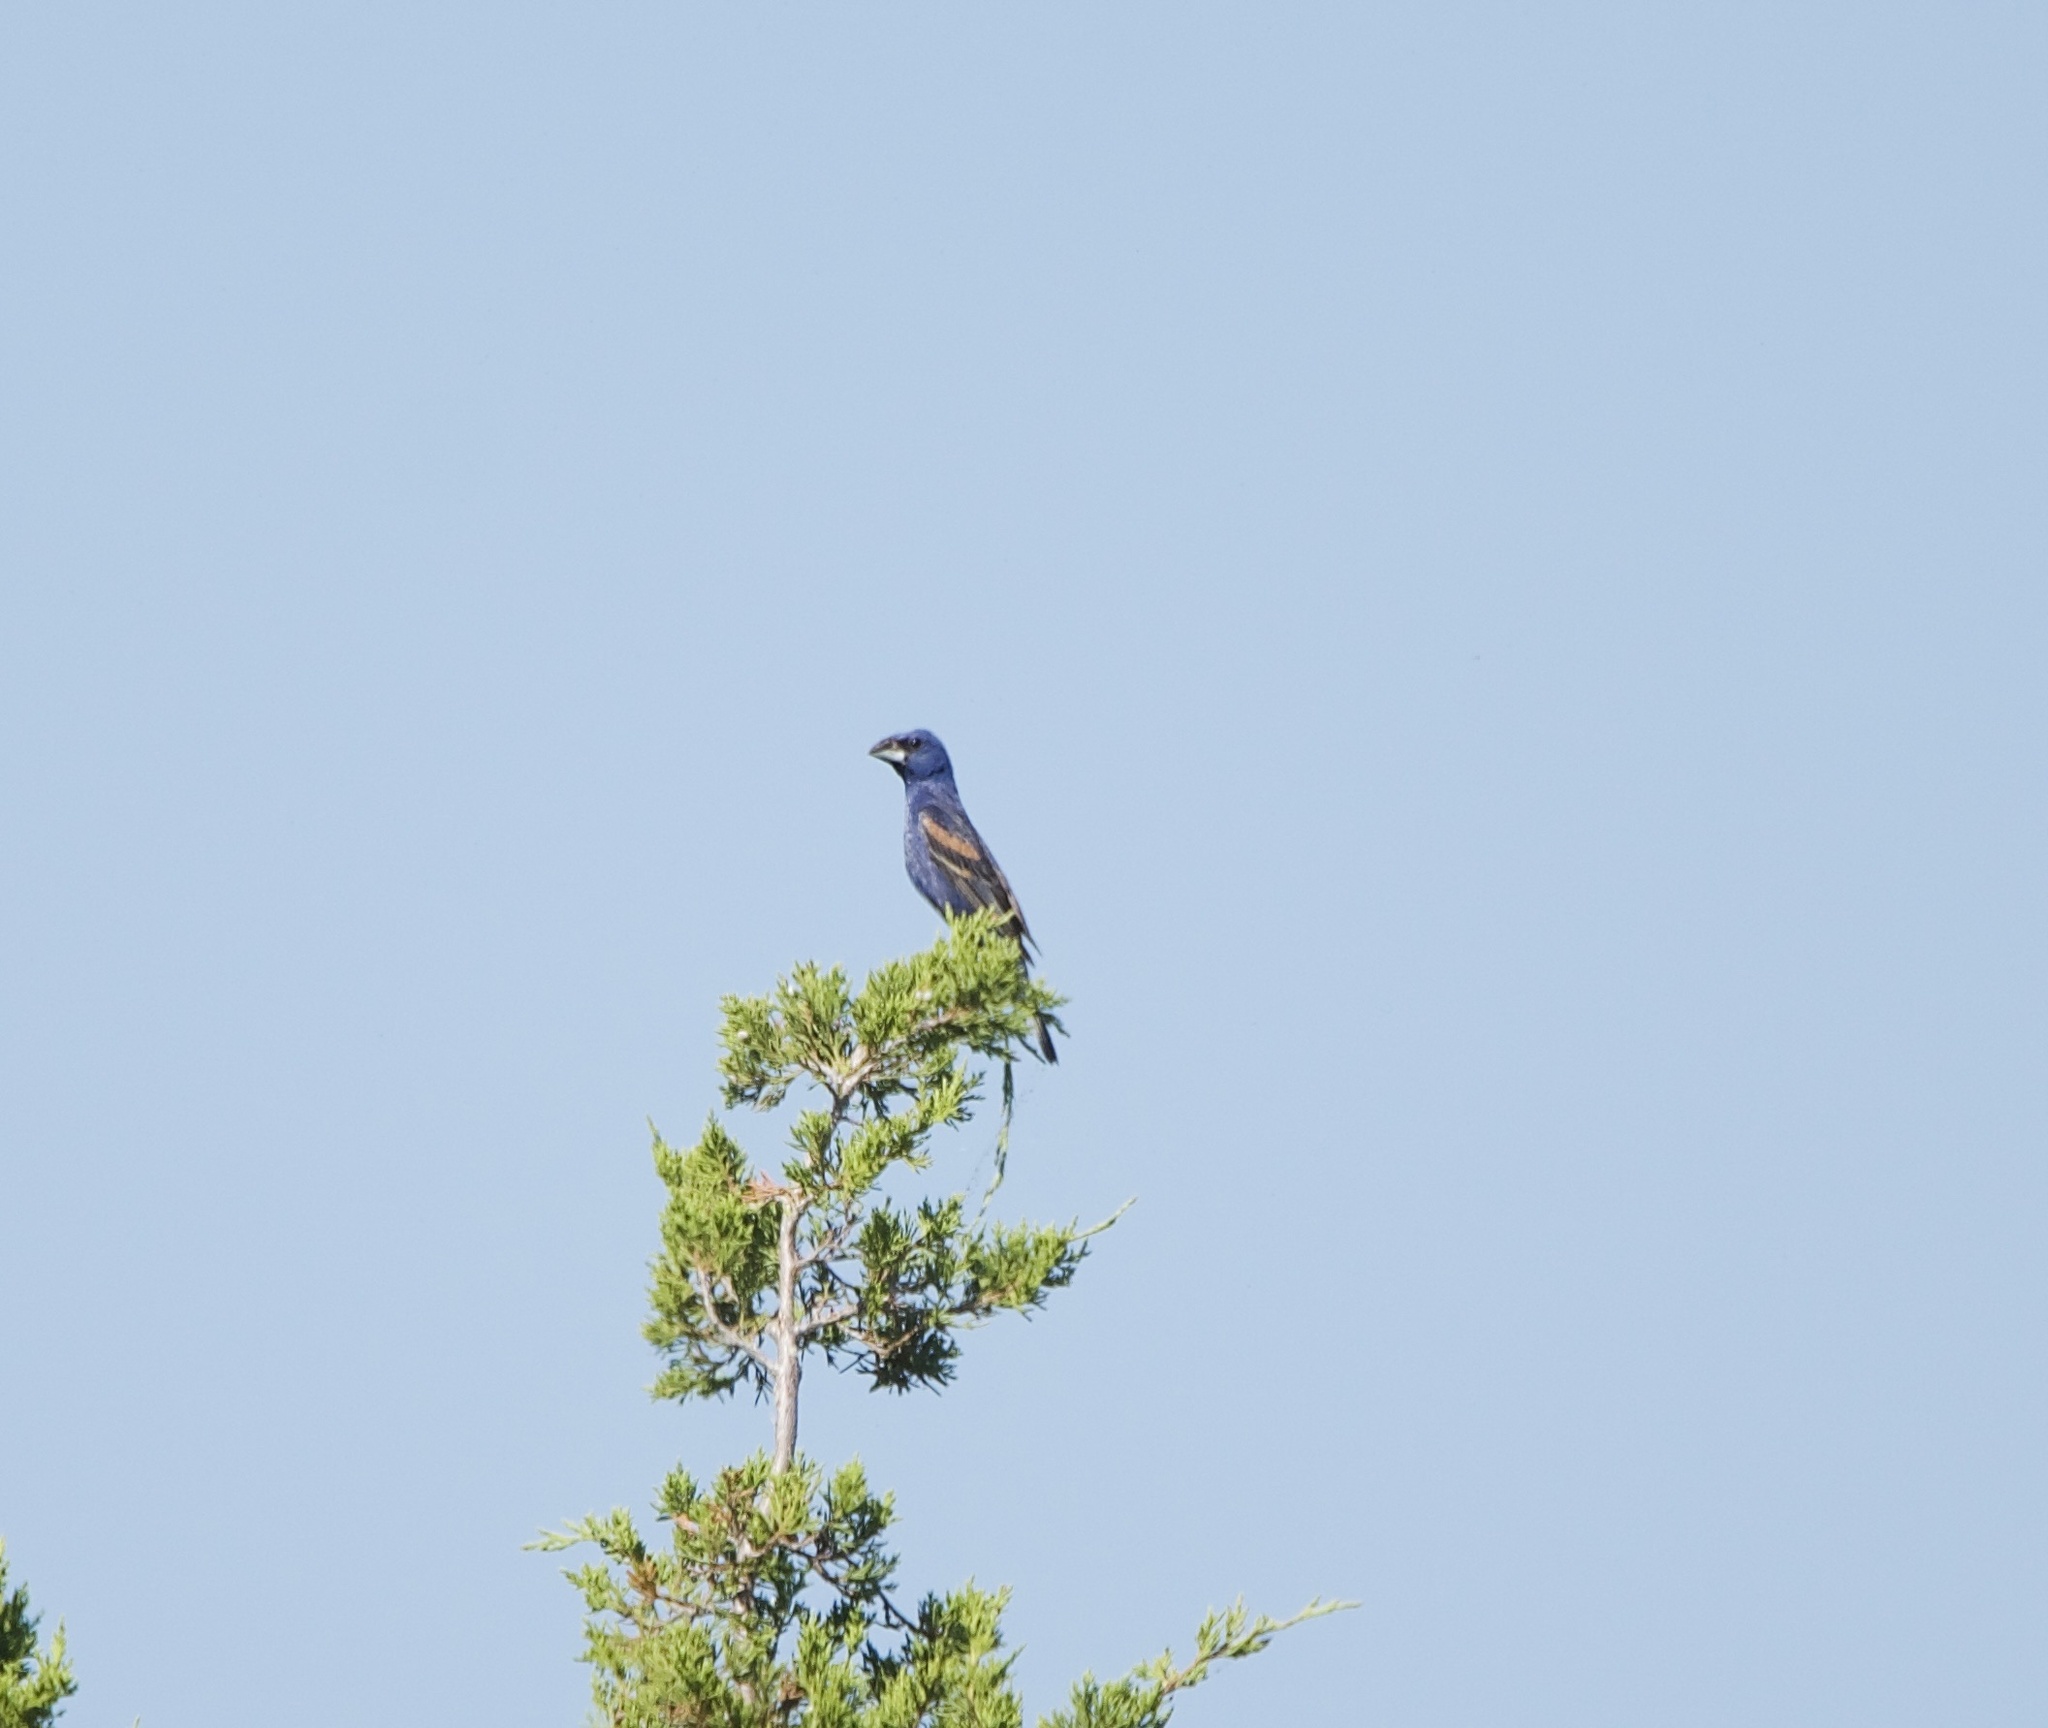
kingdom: Animalia
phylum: Chordata
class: Aves
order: Passeriformes
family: Cardinalidae
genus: Passerina
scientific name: Passerina caerulea
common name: Blue grosbeak
